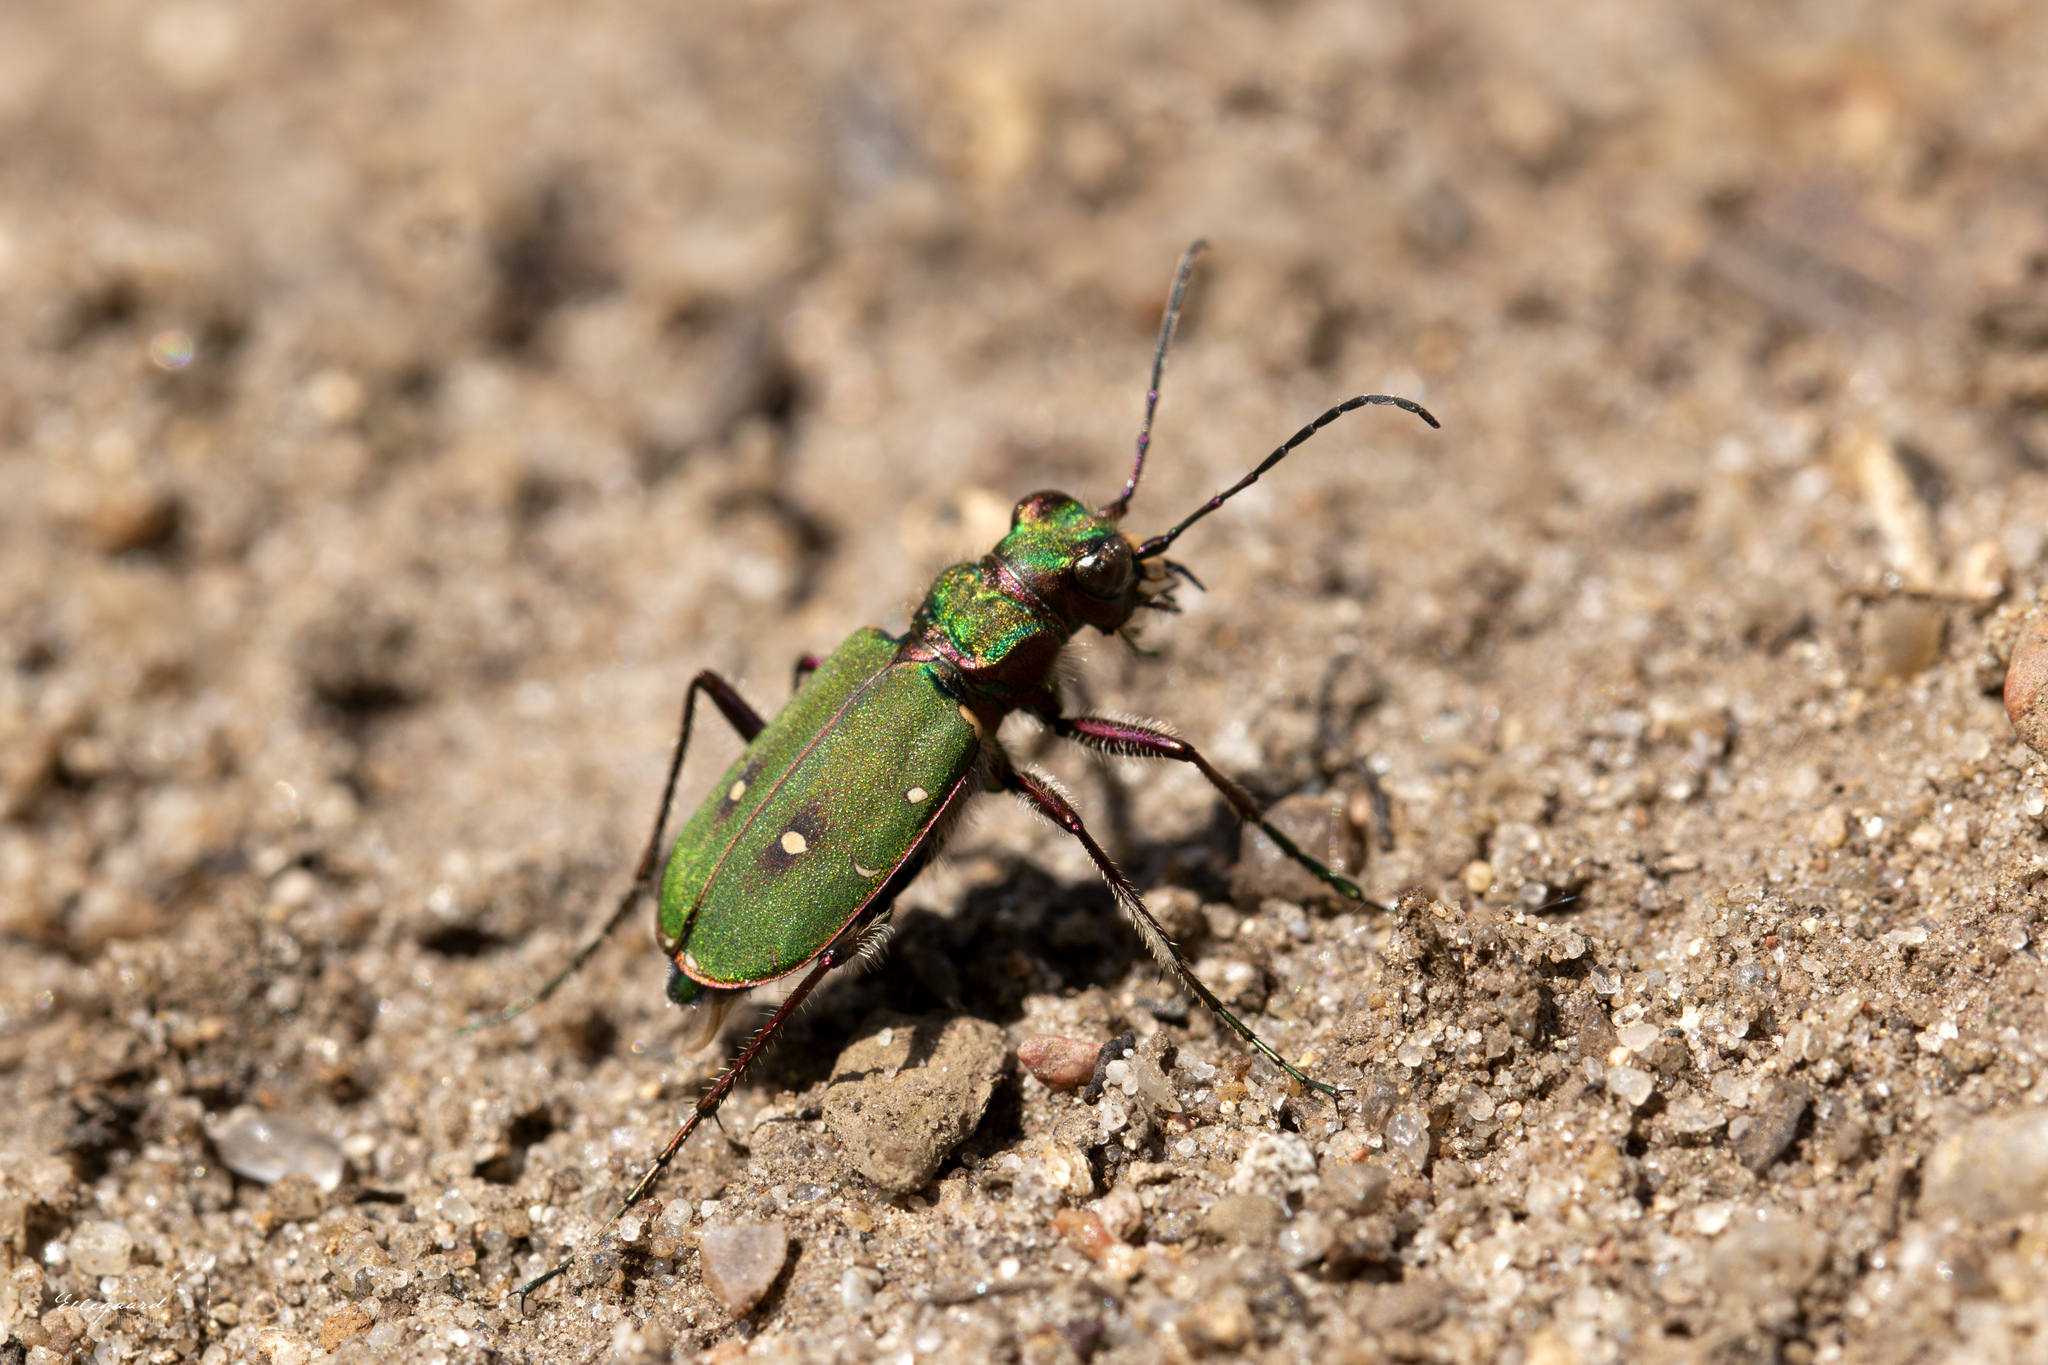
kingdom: Animalia
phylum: Arthropoda
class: Insecta
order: Coleoptera
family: Carabidae
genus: Cicindela
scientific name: Cicindela campestris
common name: Common tiger beetle
